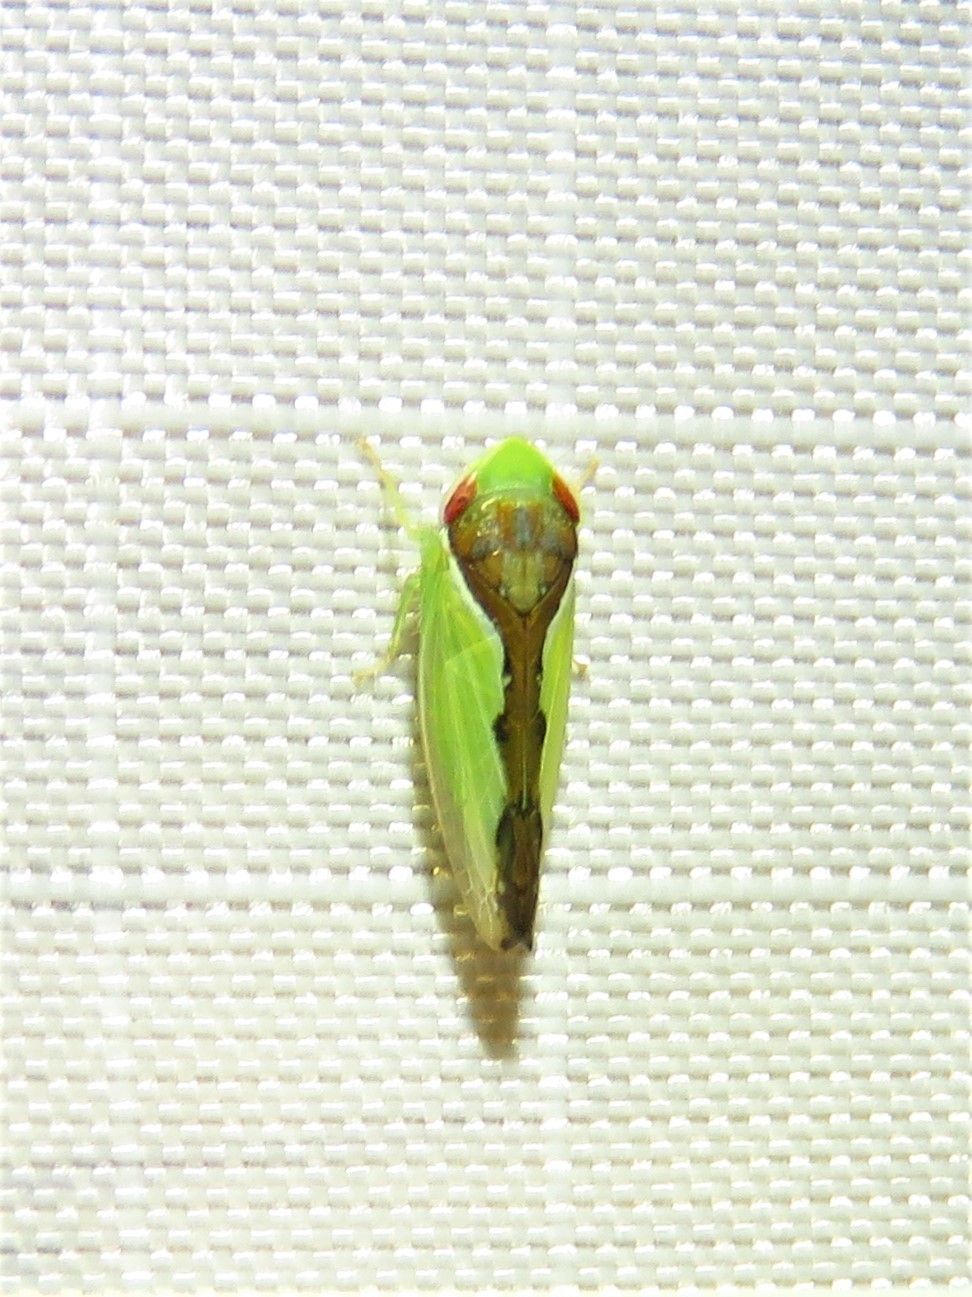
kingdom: Animalia
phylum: Arthropoda
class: Insecta
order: Hemiptera
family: Cicadellidae
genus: Omansobara ing
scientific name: Omansobara ing Omansobara palliolata
